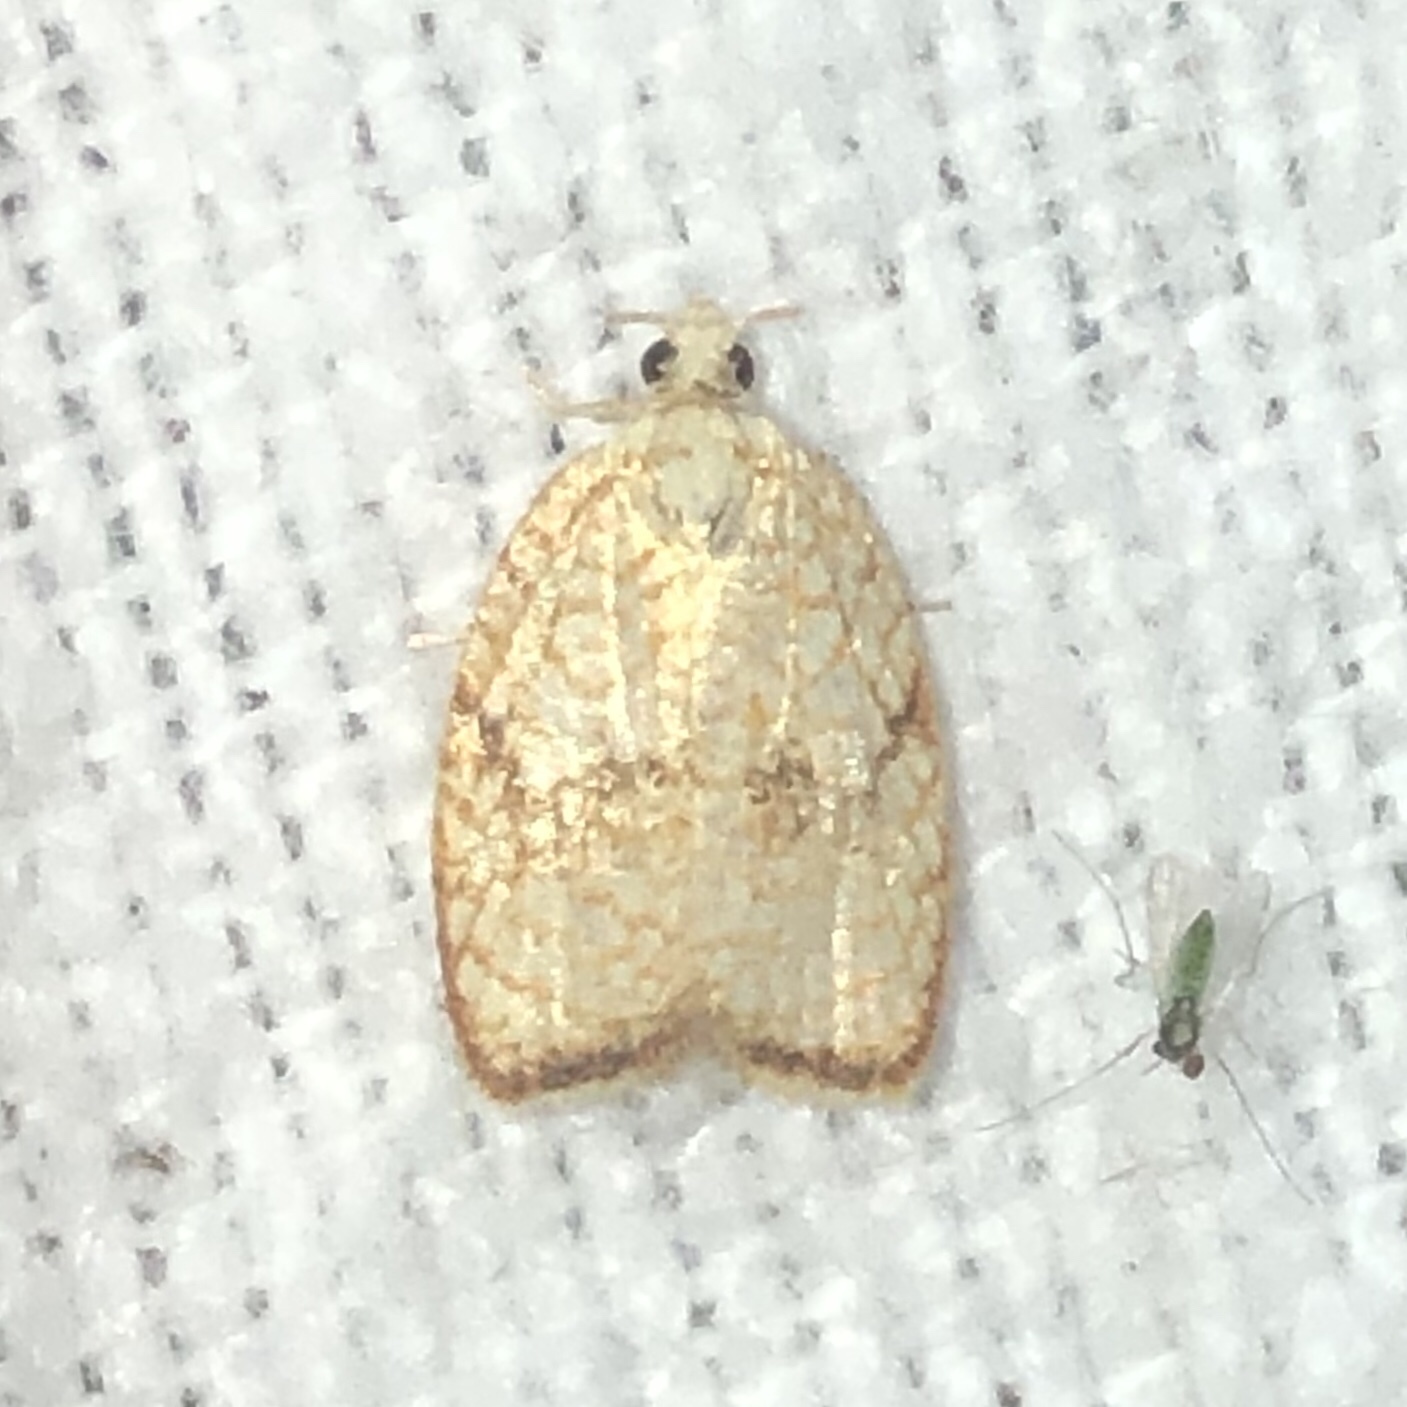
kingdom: Animalia
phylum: Arthropoda
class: Insecta
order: Lepidoptera
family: Tortricidae
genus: Acleris
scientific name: Acleris forsskaleana
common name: Maple button
